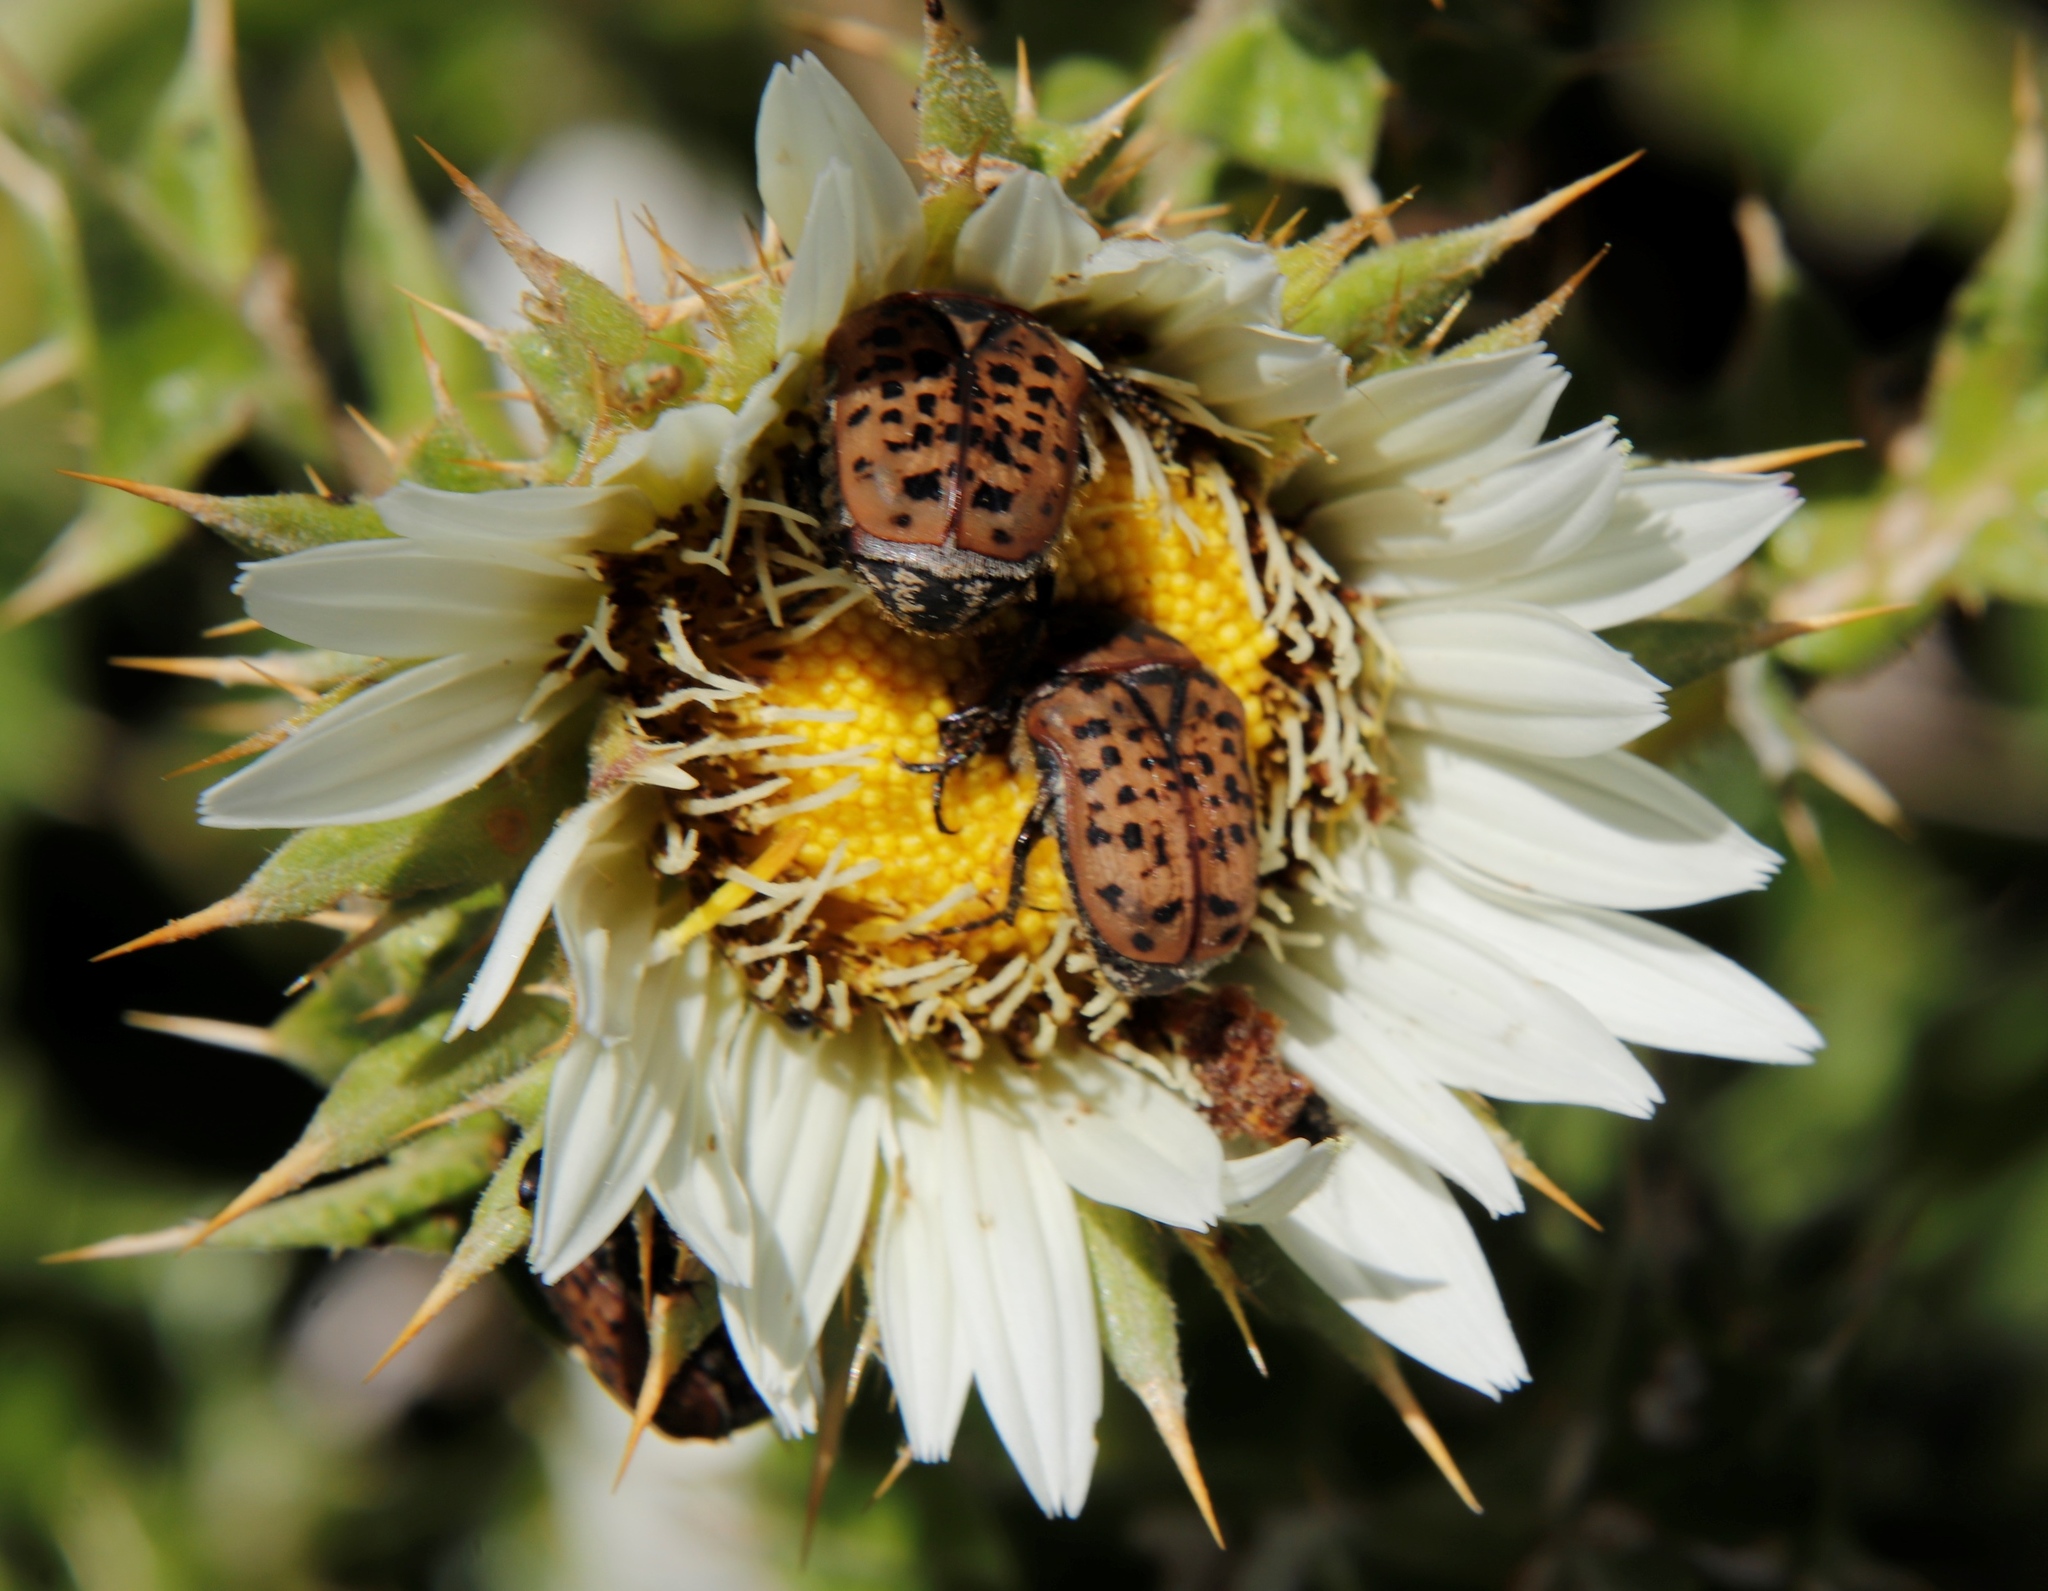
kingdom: Animalia
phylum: Arthropoda
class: Insecta
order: Coleoptera
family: Scarabaeidae
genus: Atrichelaphinis
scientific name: Atrichelaphinis tigrina
